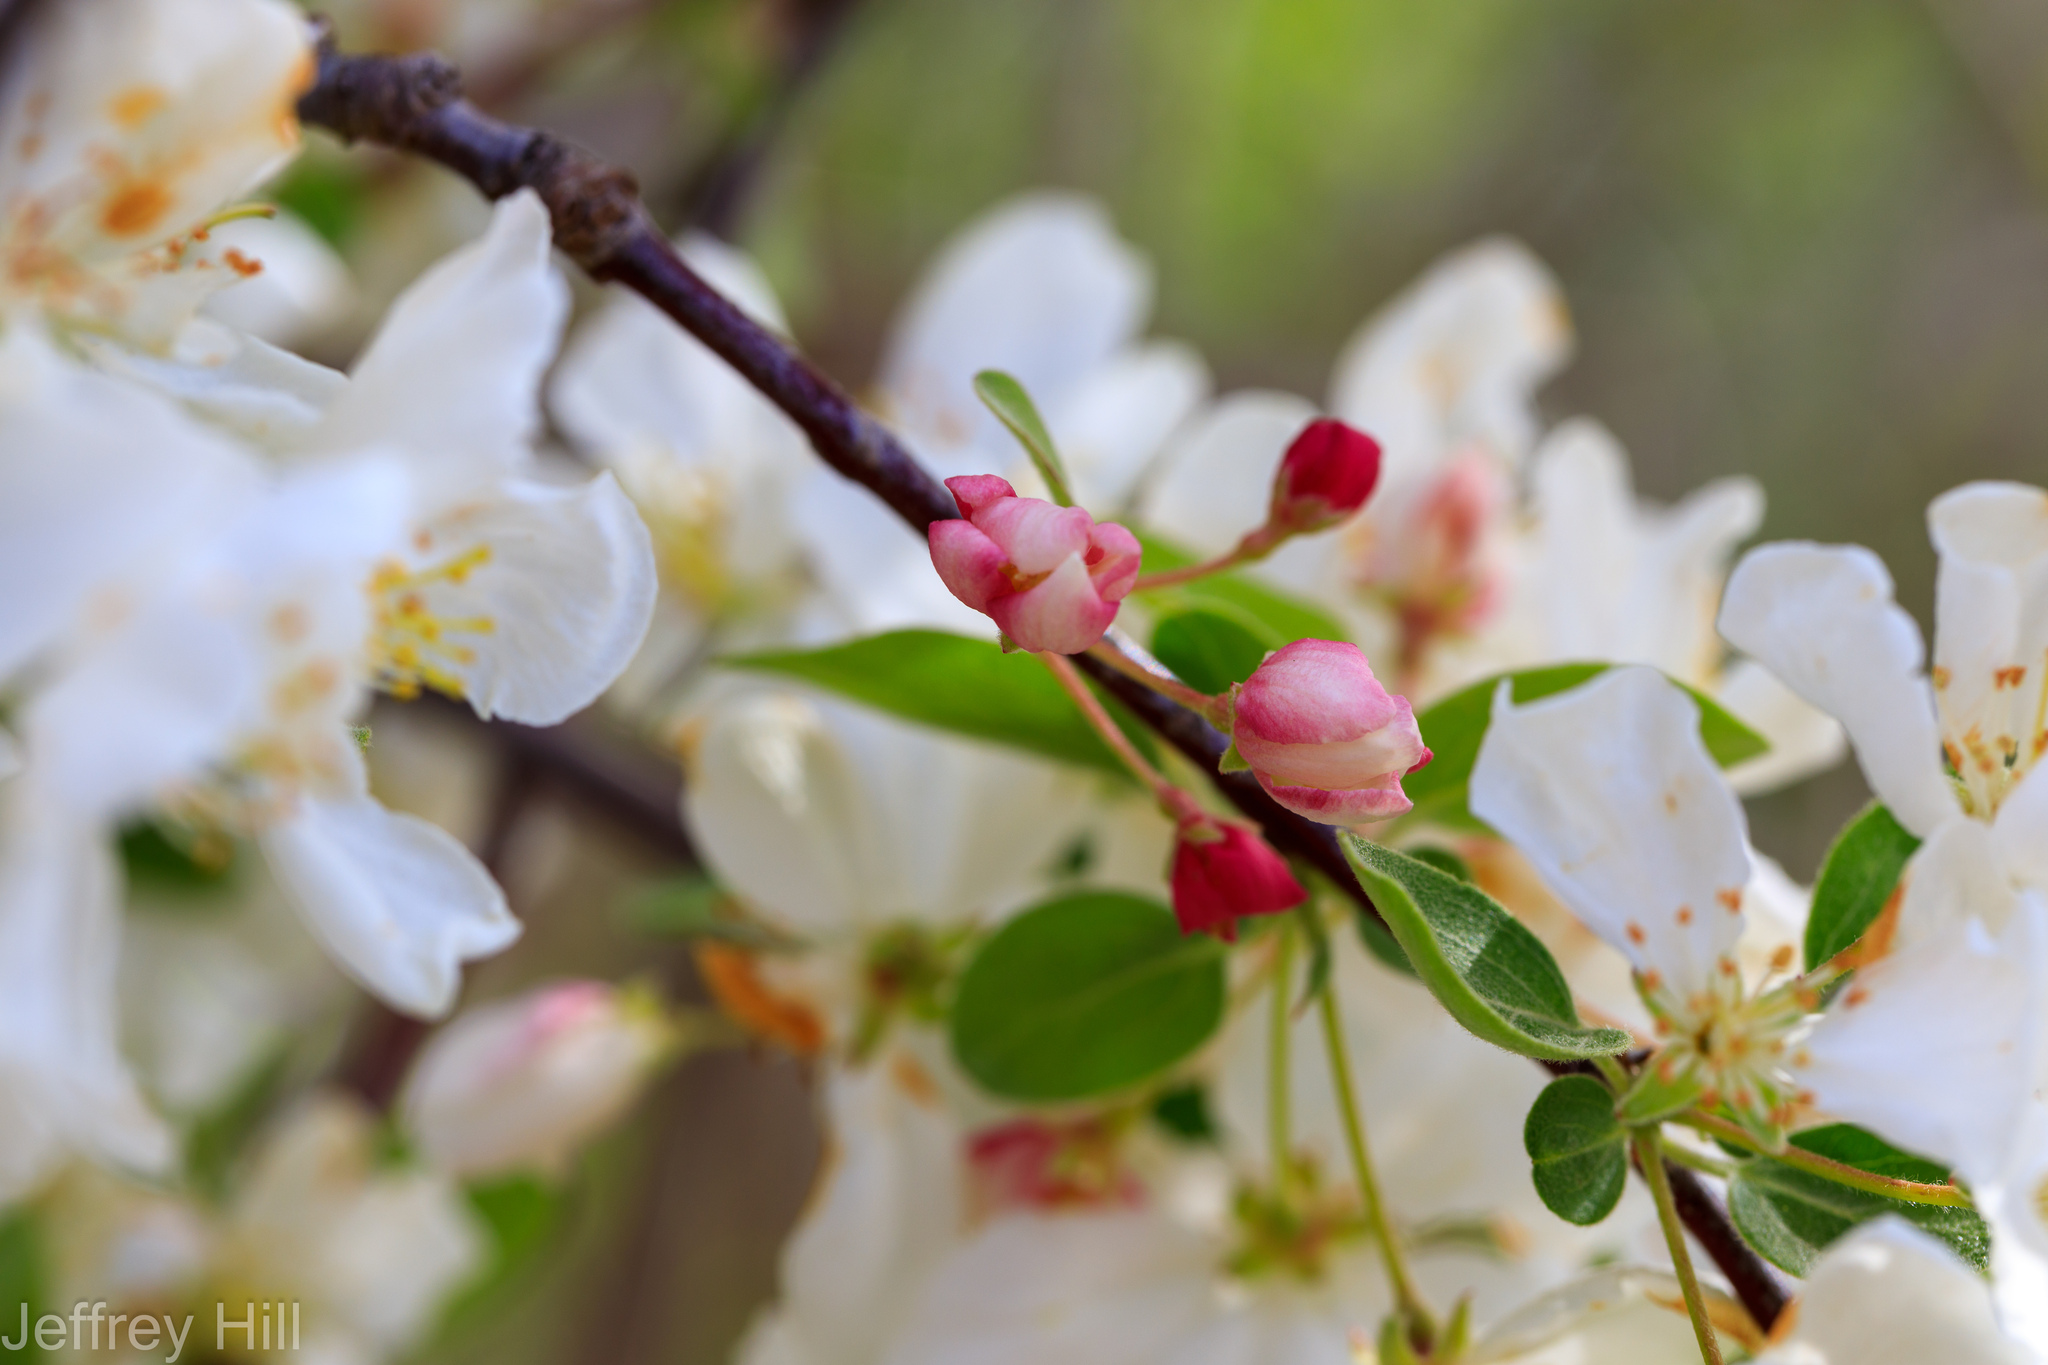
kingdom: Plantae
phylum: Tracheophyta
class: Magnoliopsida
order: Rosales
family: Rosaceae
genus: Malus
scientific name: Malus domestica
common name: Apple
